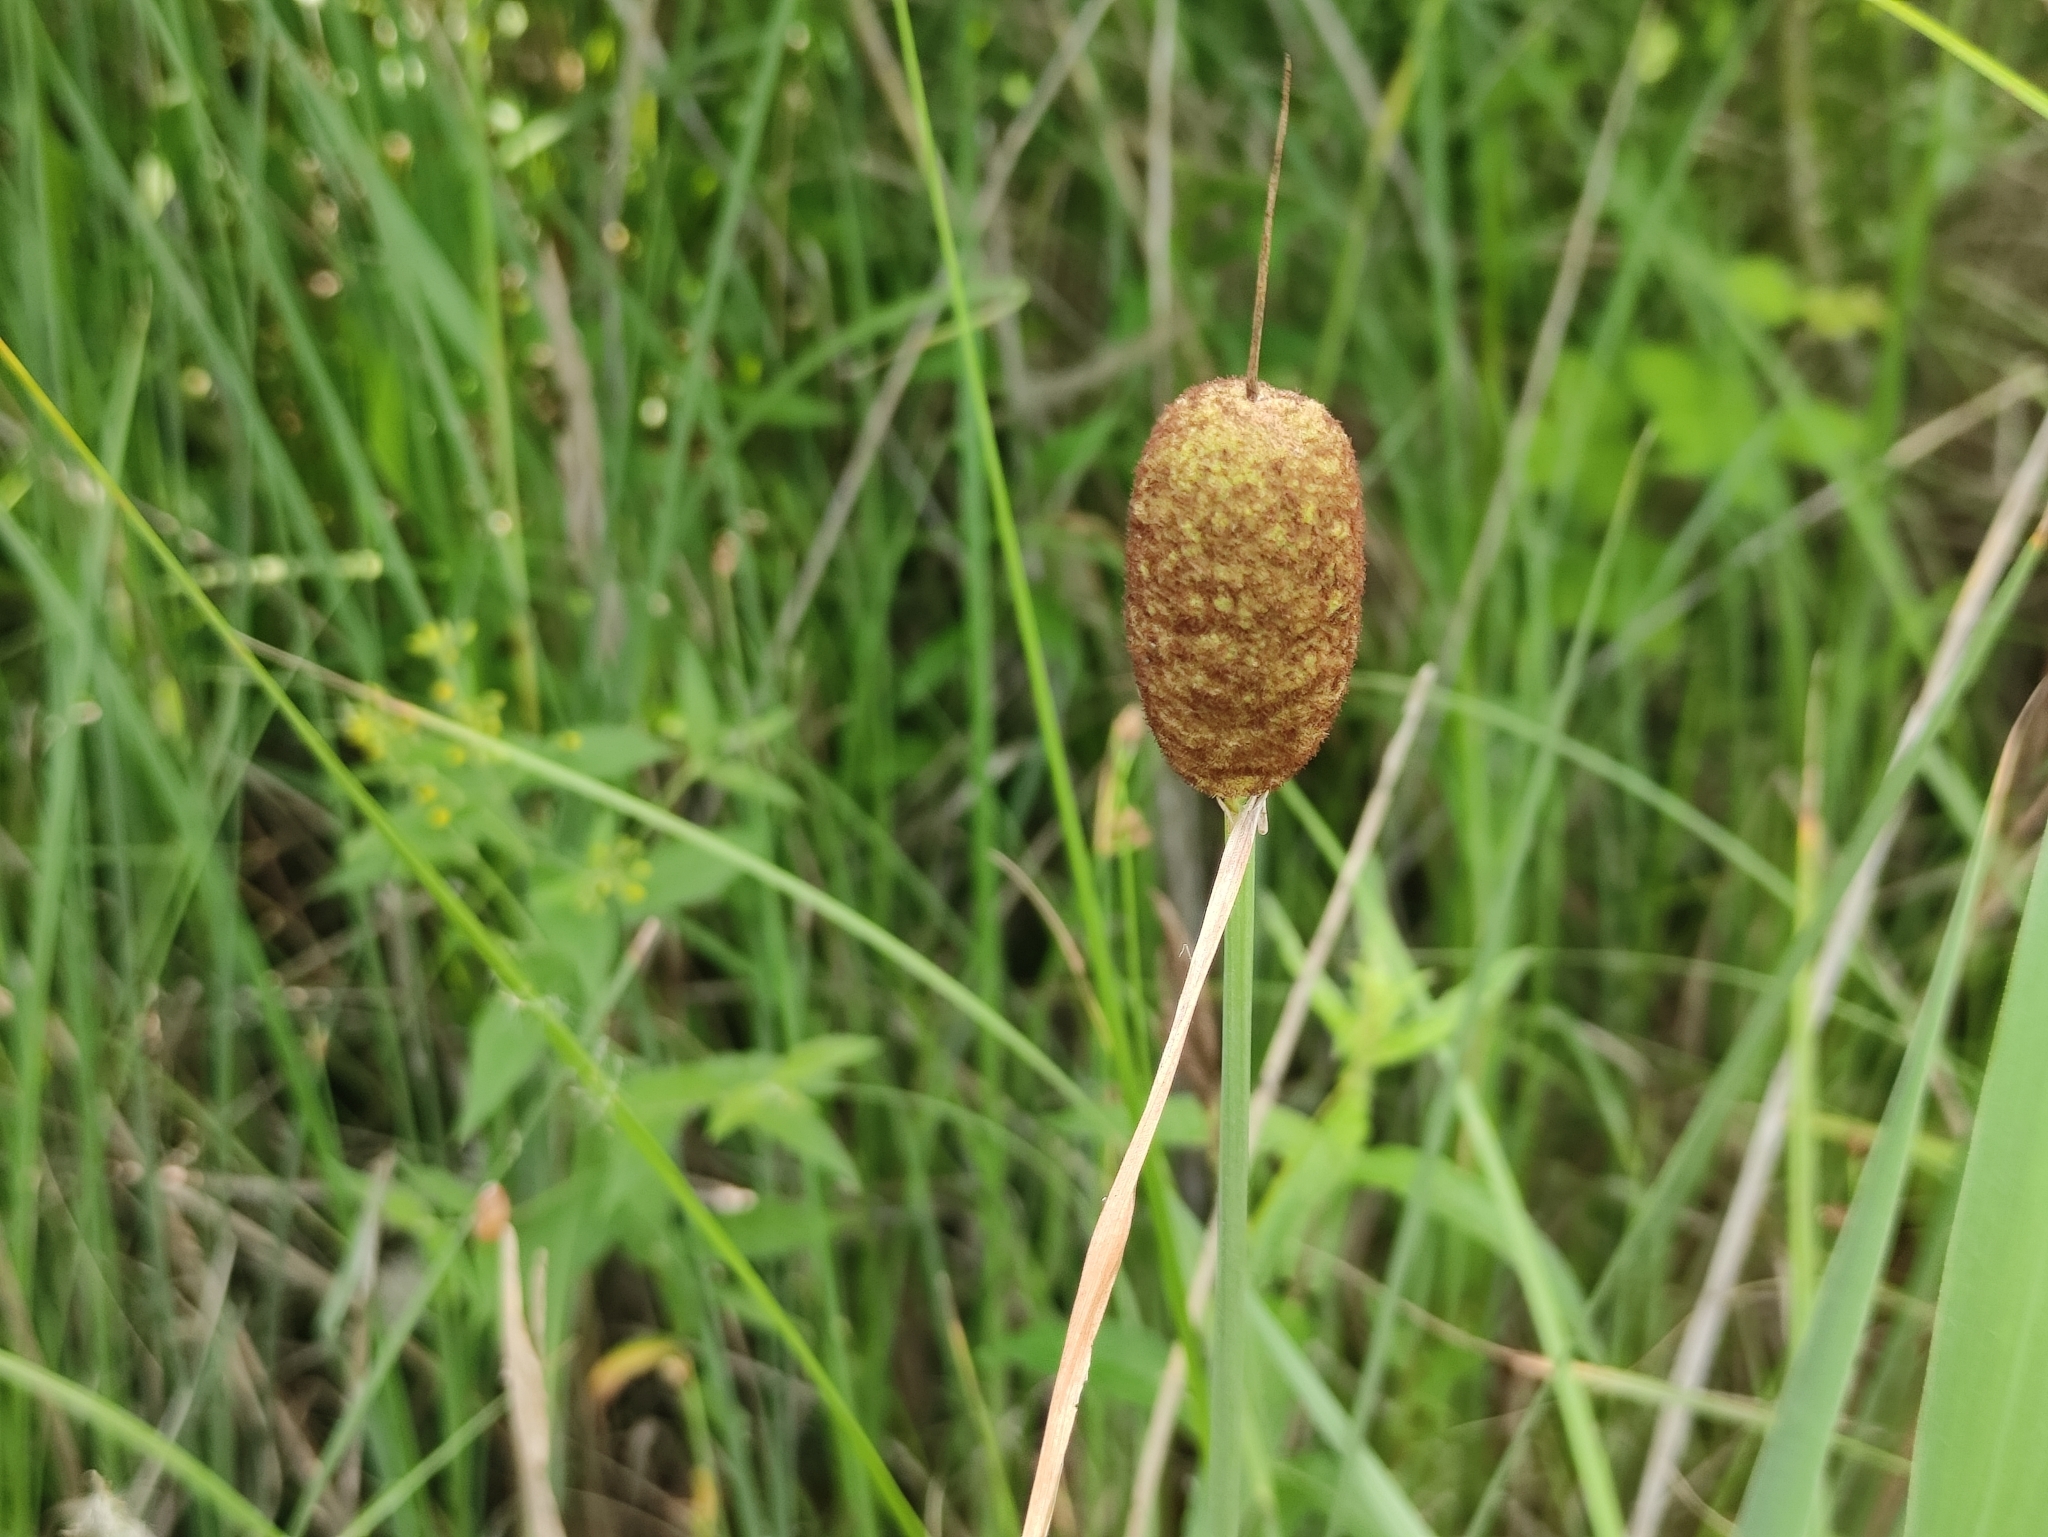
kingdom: Plantae
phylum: Tracheophyta
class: Liliopsida
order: Poales
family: Typhaceae
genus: Typha
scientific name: Typha minima
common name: Dwarf bulrush
